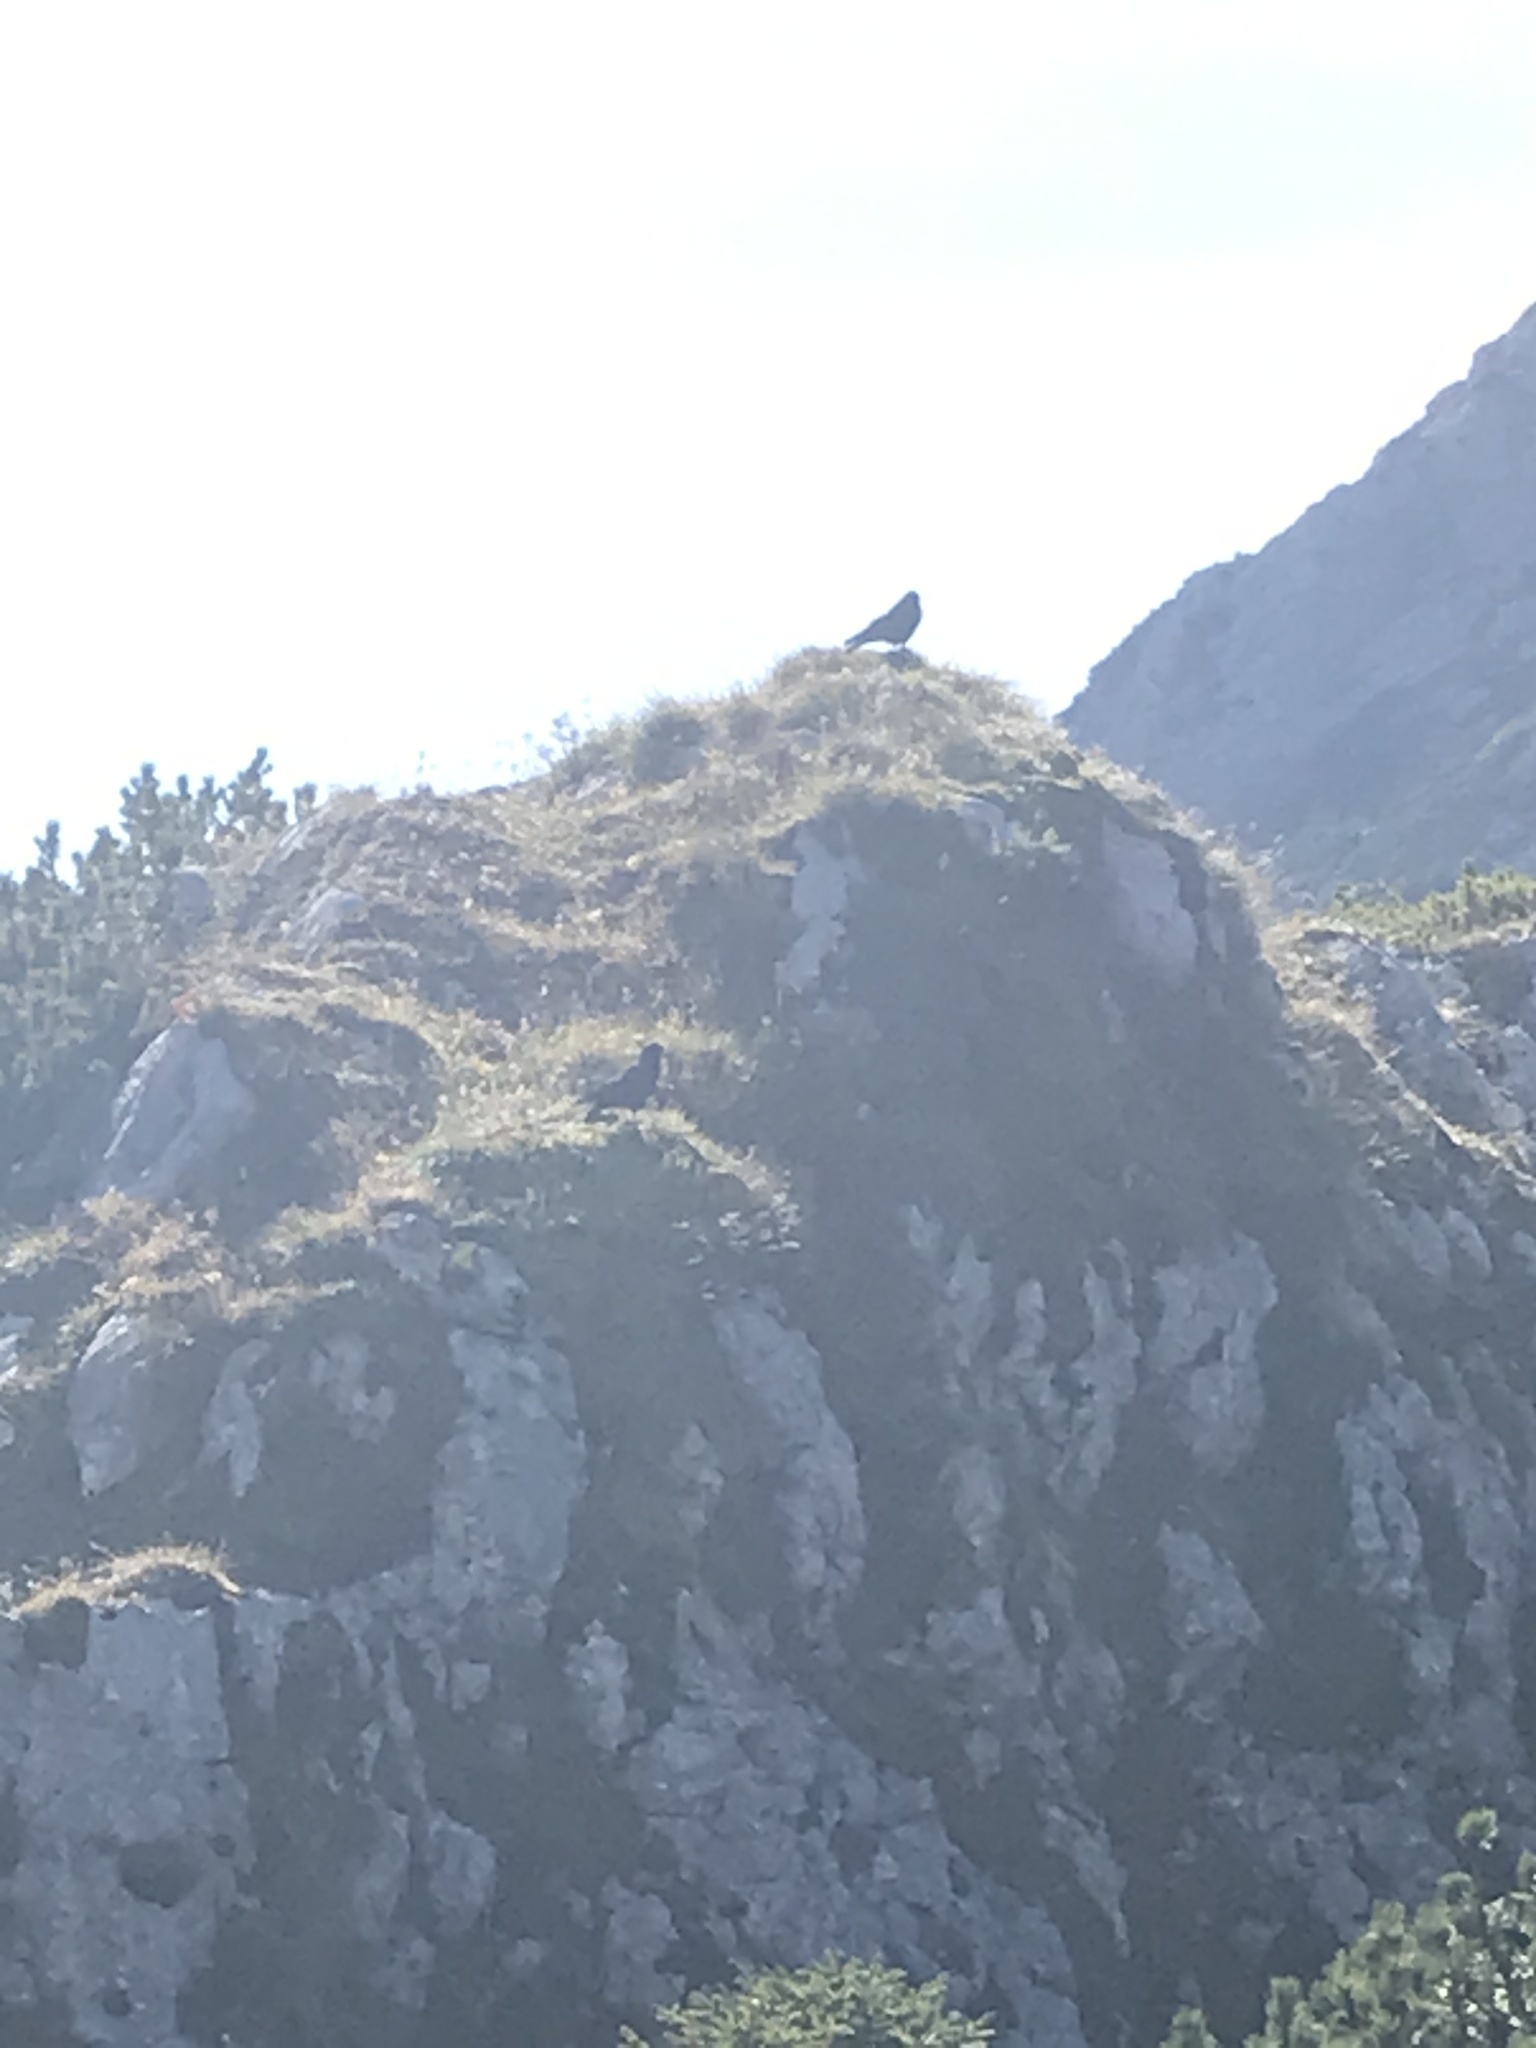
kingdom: Animalia
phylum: Chordata
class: Aves
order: Passeriformes
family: Corvidae
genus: Pyrrhocorax
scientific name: Pyrrhocorax graculus
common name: Alpine chough
